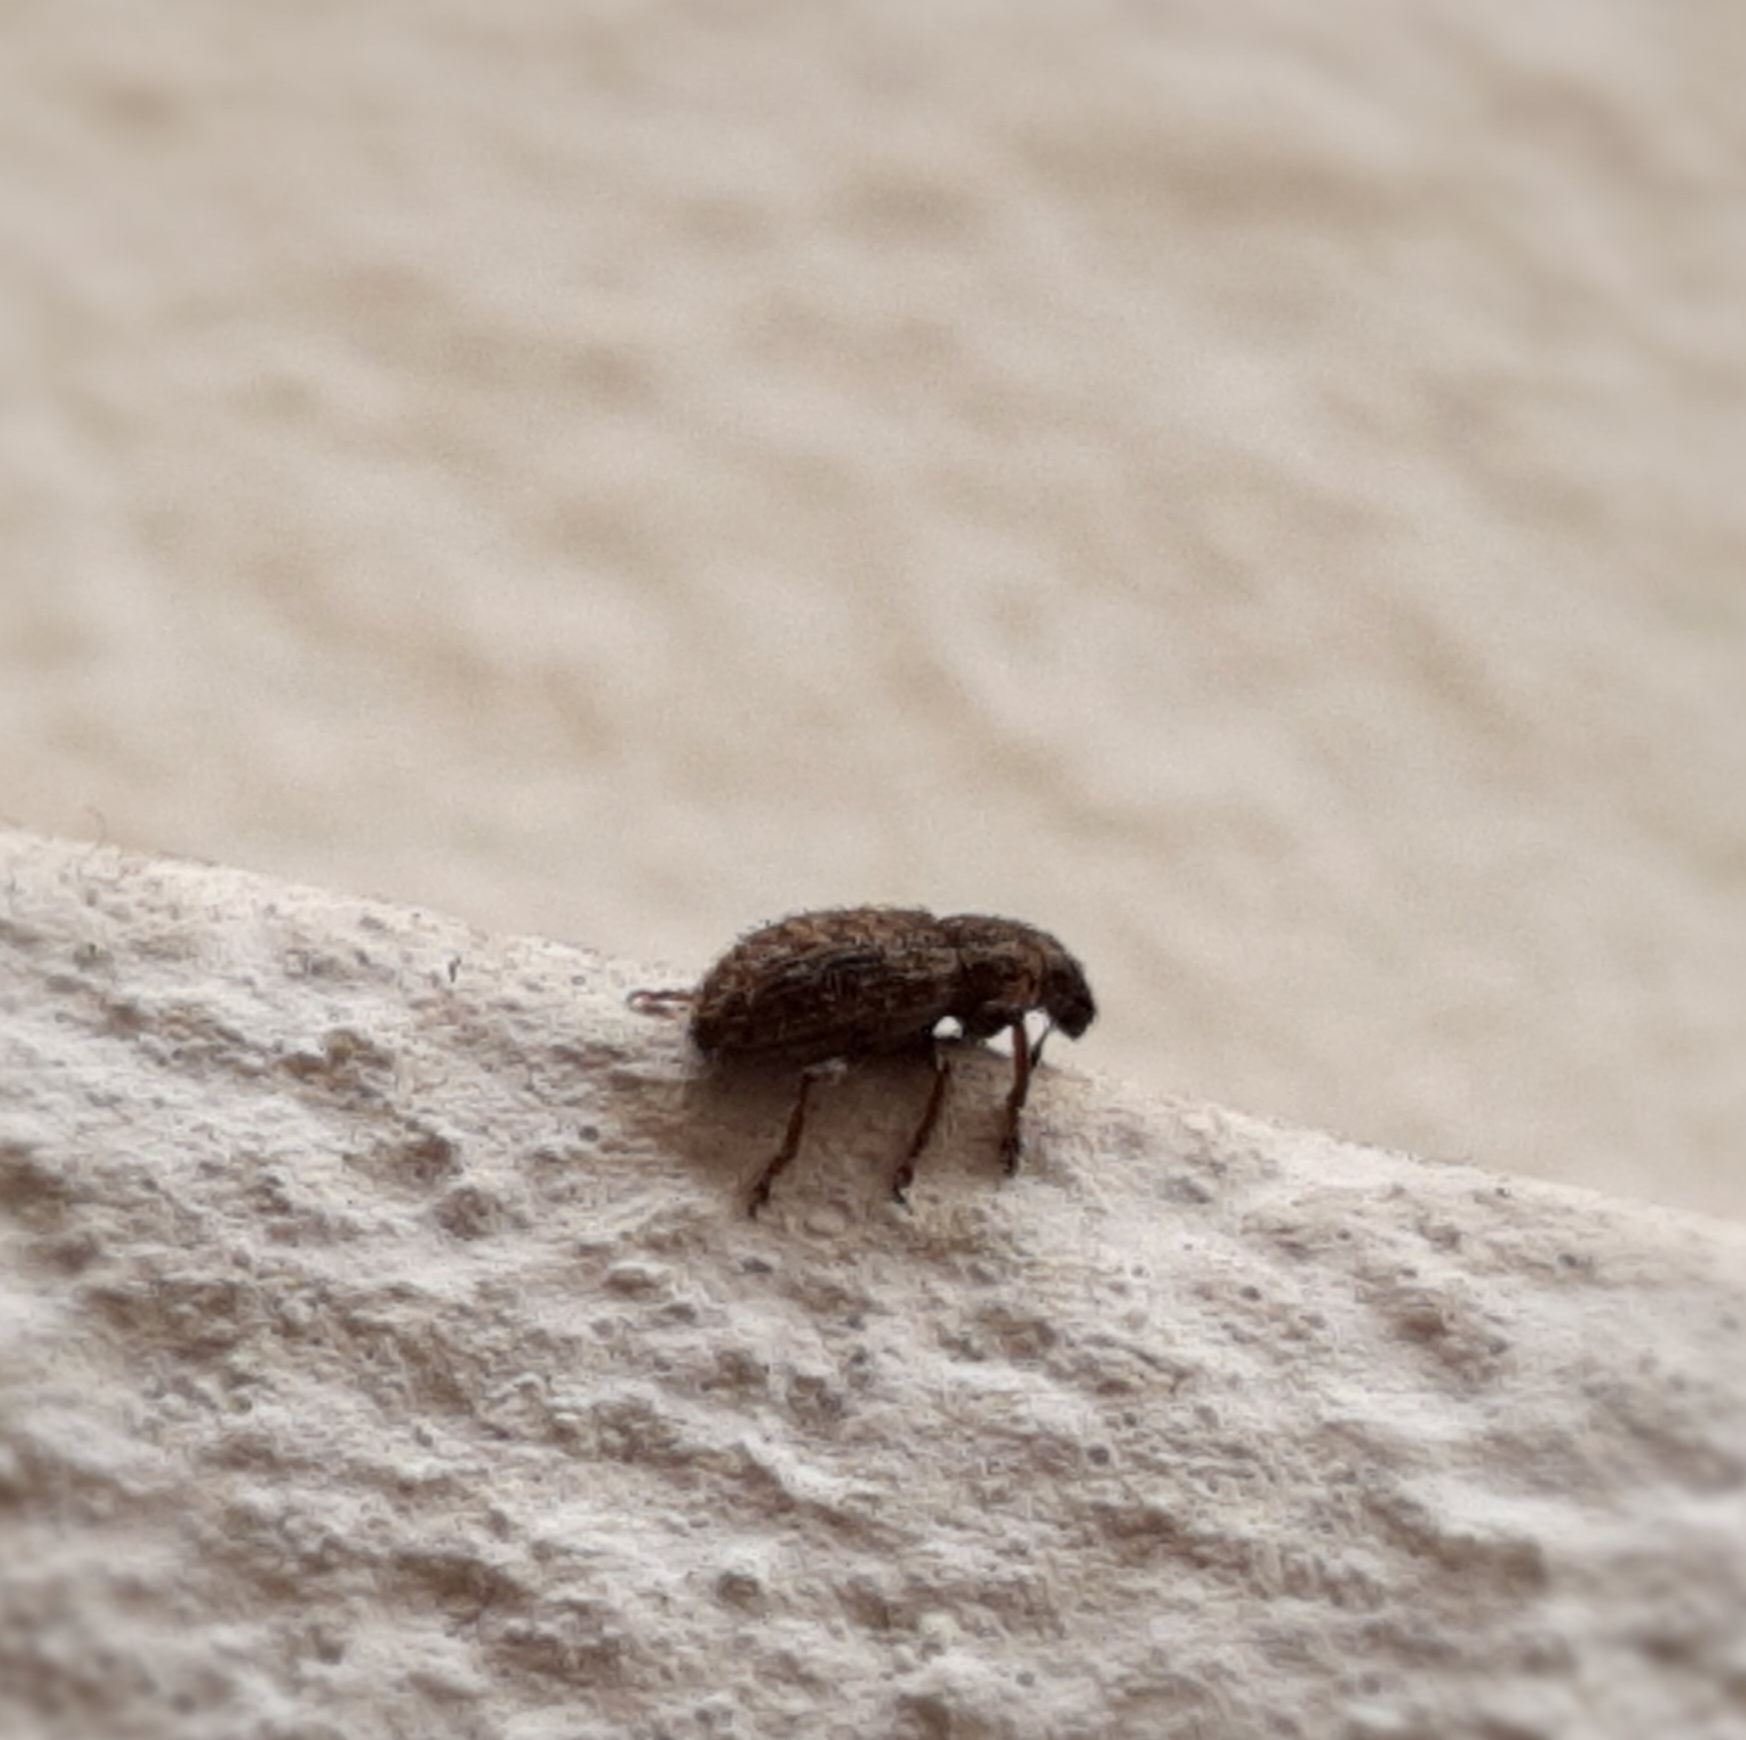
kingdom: Animalia
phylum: Arthropoda
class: Insecta
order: Coleoptera
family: Curculionidae
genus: Sitona
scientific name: Sitona hispidulus
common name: Clover weevil
